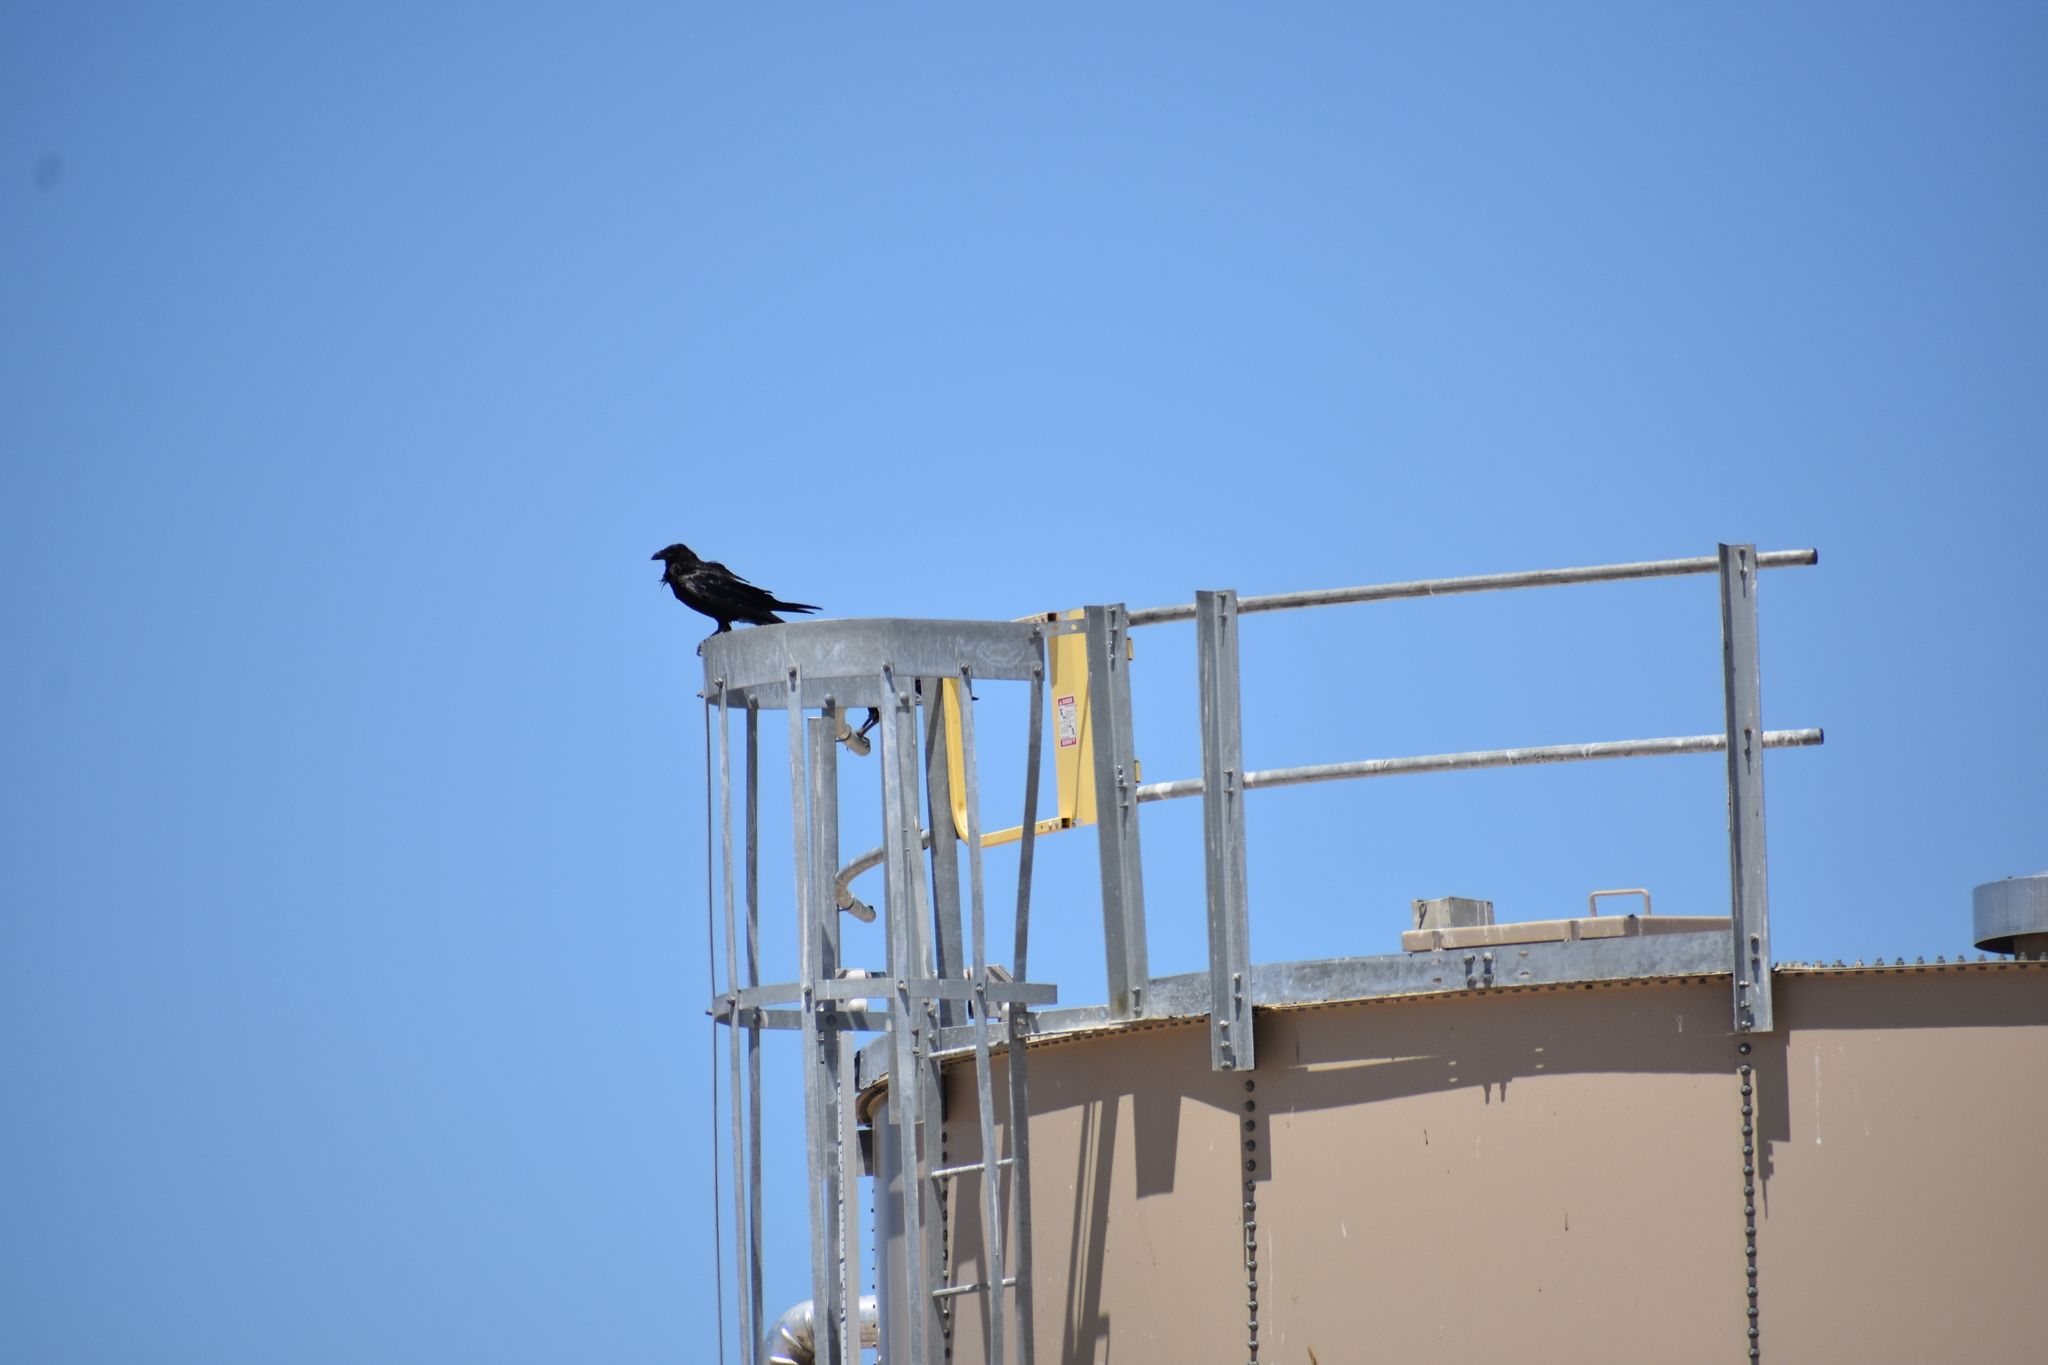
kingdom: Animalia
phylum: Chordata
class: Aves
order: Passeriformes
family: Corvidae
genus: Corvus
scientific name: Corvus corax
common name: Common raven
